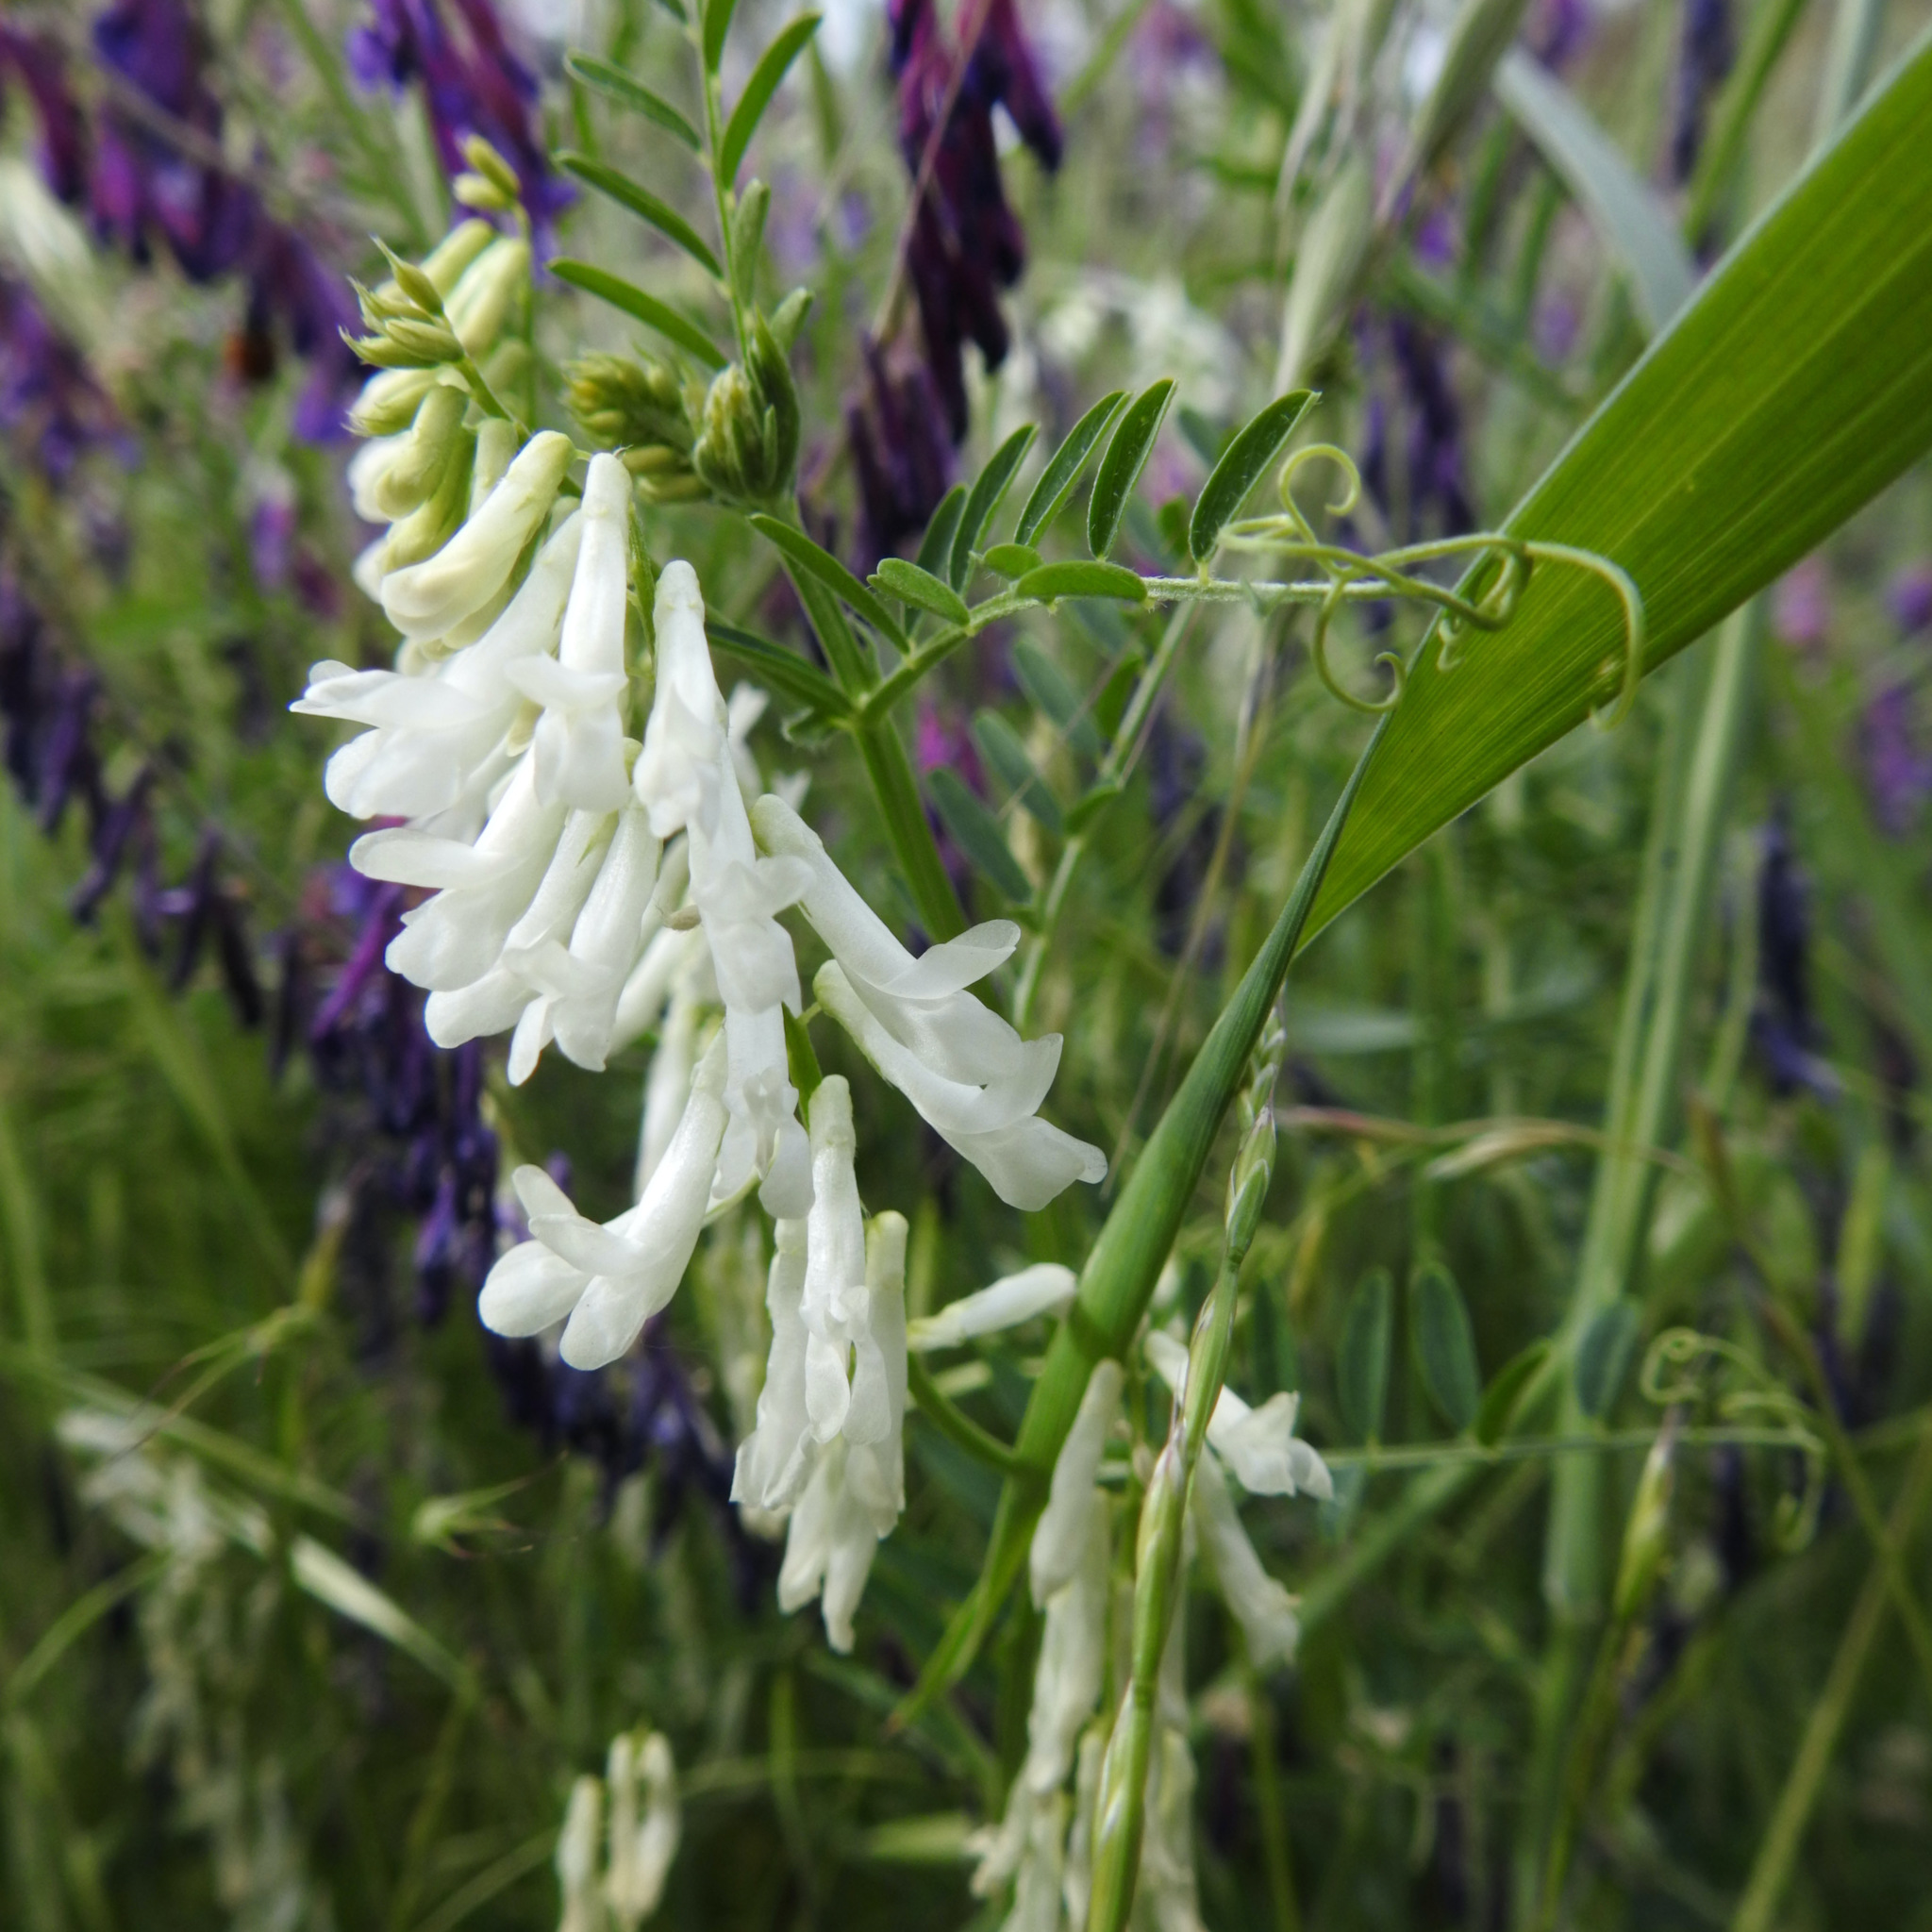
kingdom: Plantae
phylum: Tracheophyta
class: Magnoliopsida
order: Fabales
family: Fabaceae
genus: Vicia
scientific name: Vicia villosa
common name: Fodder vetch
